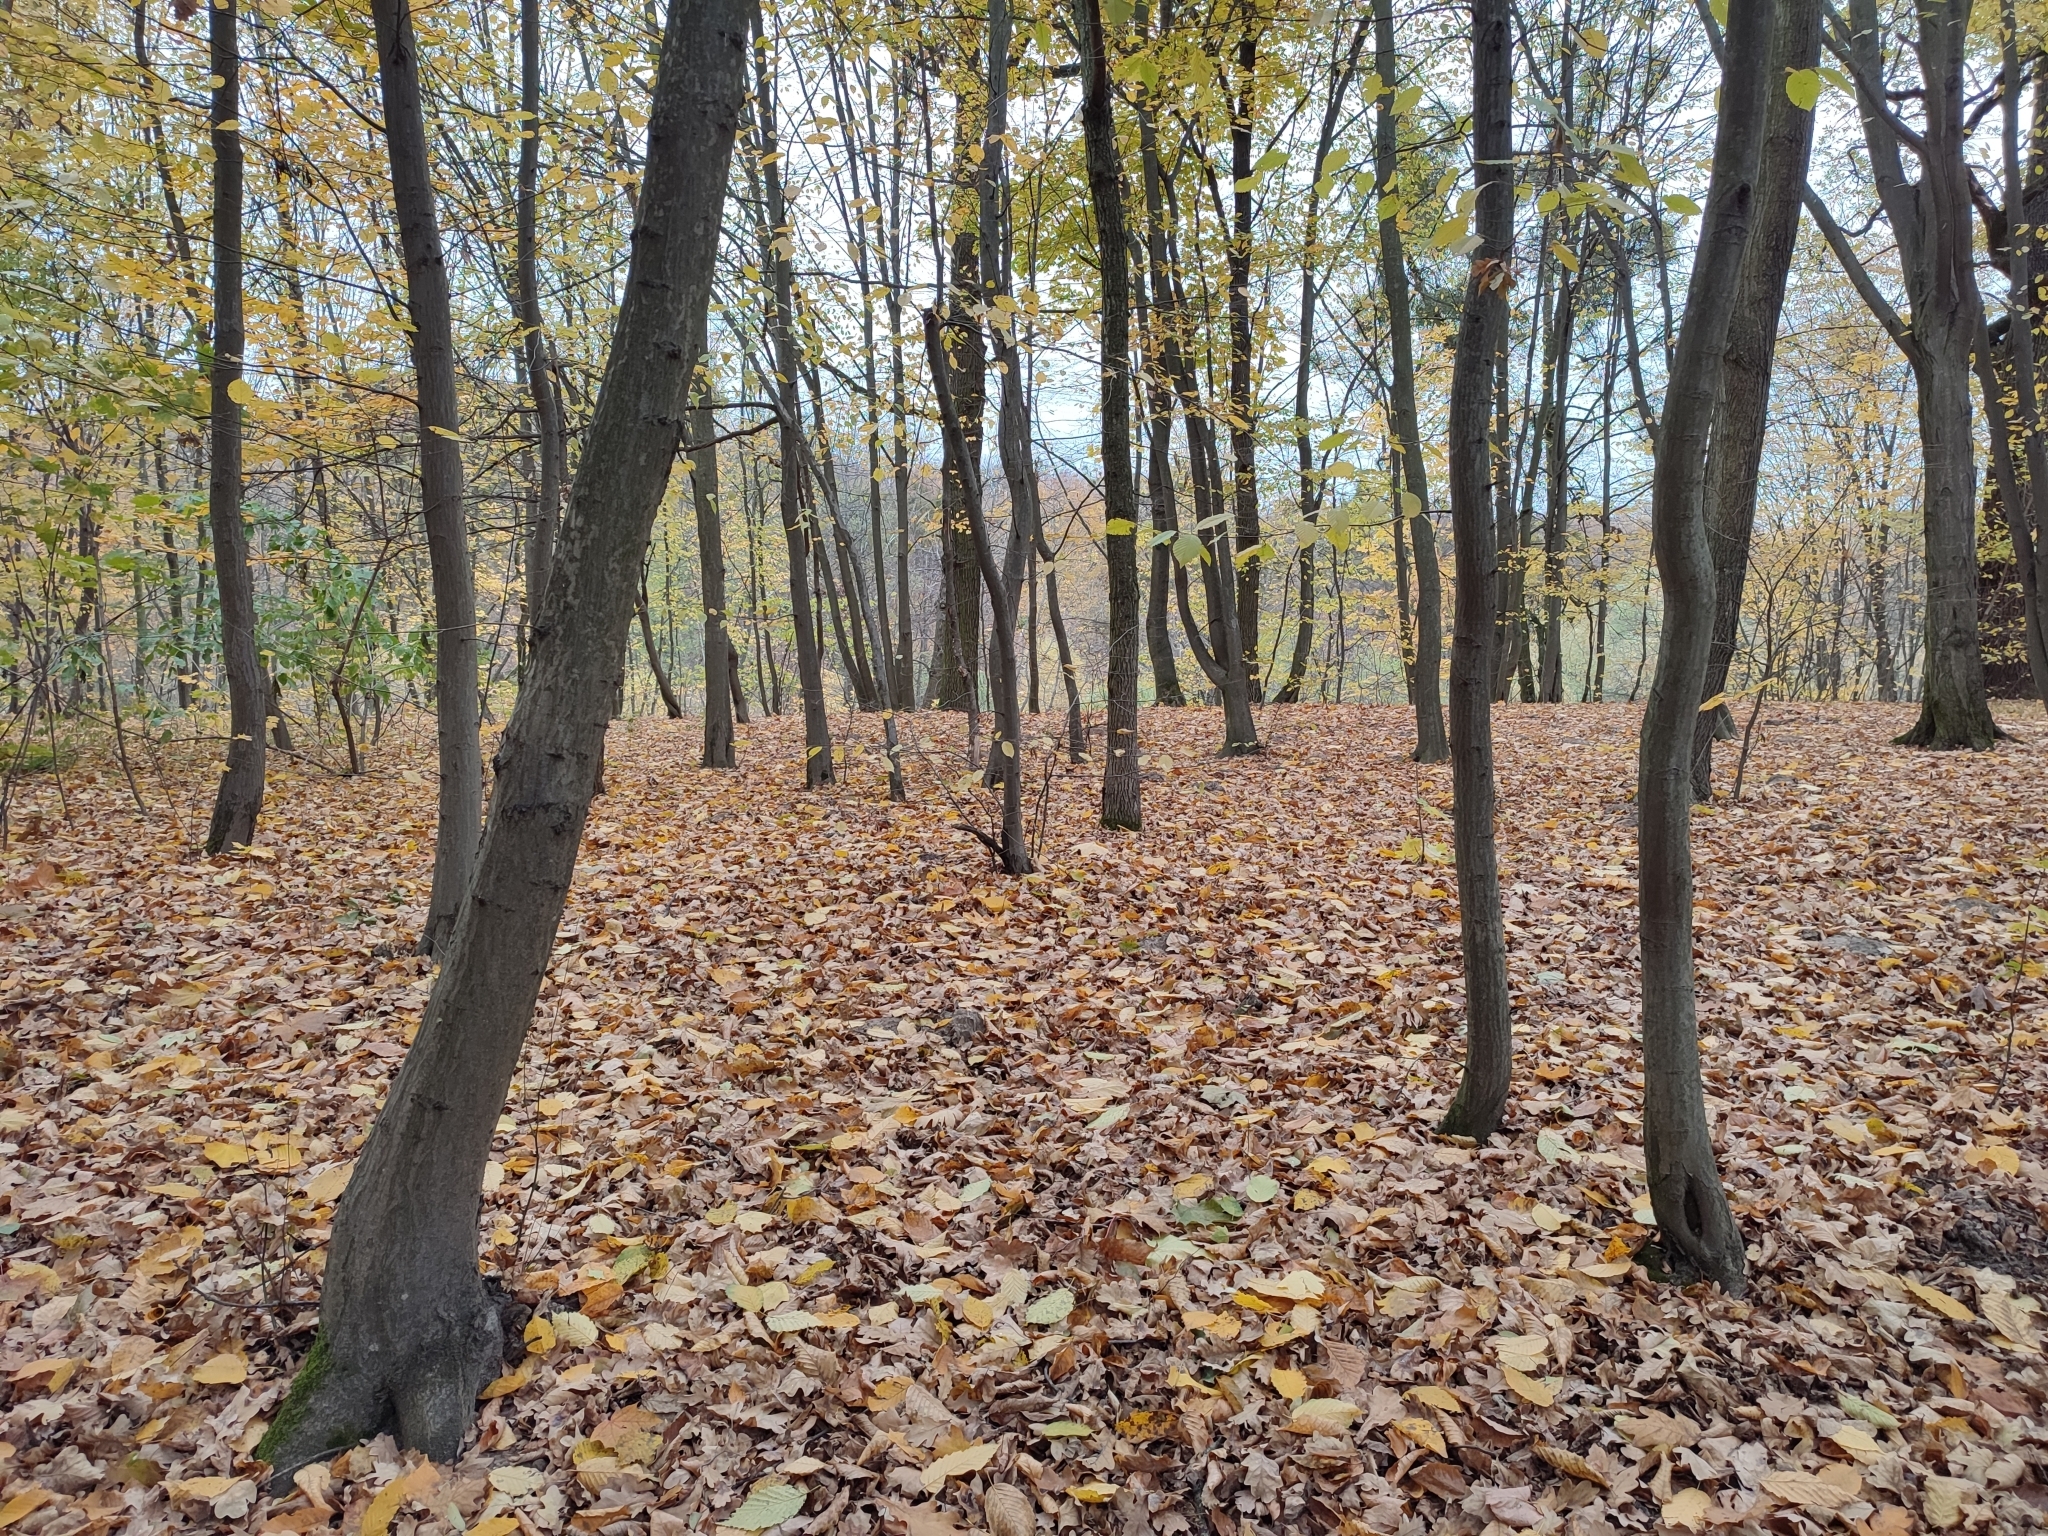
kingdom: Plantae
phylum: Tracheophyta
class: Magnoliopsida
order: Fagales
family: Betulaceae
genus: Carpinus
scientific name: Carpinus betulus
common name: Hornbeam
